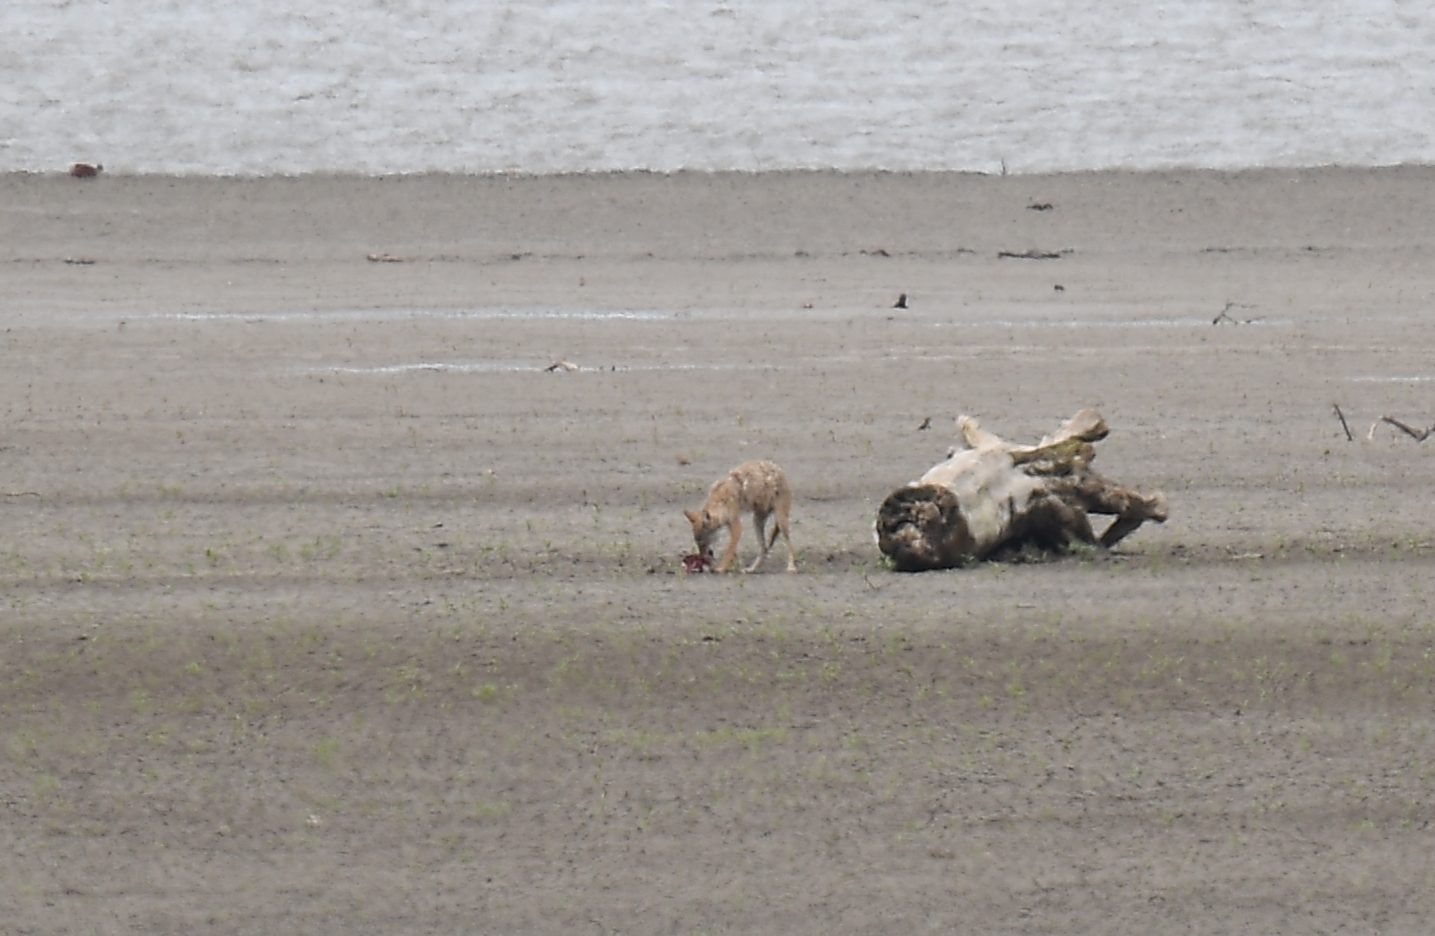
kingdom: Animalia
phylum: Chordata
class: Mammalia
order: Carnivora
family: Canidae
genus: Canis
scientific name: Canis latrans
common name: Coyote
